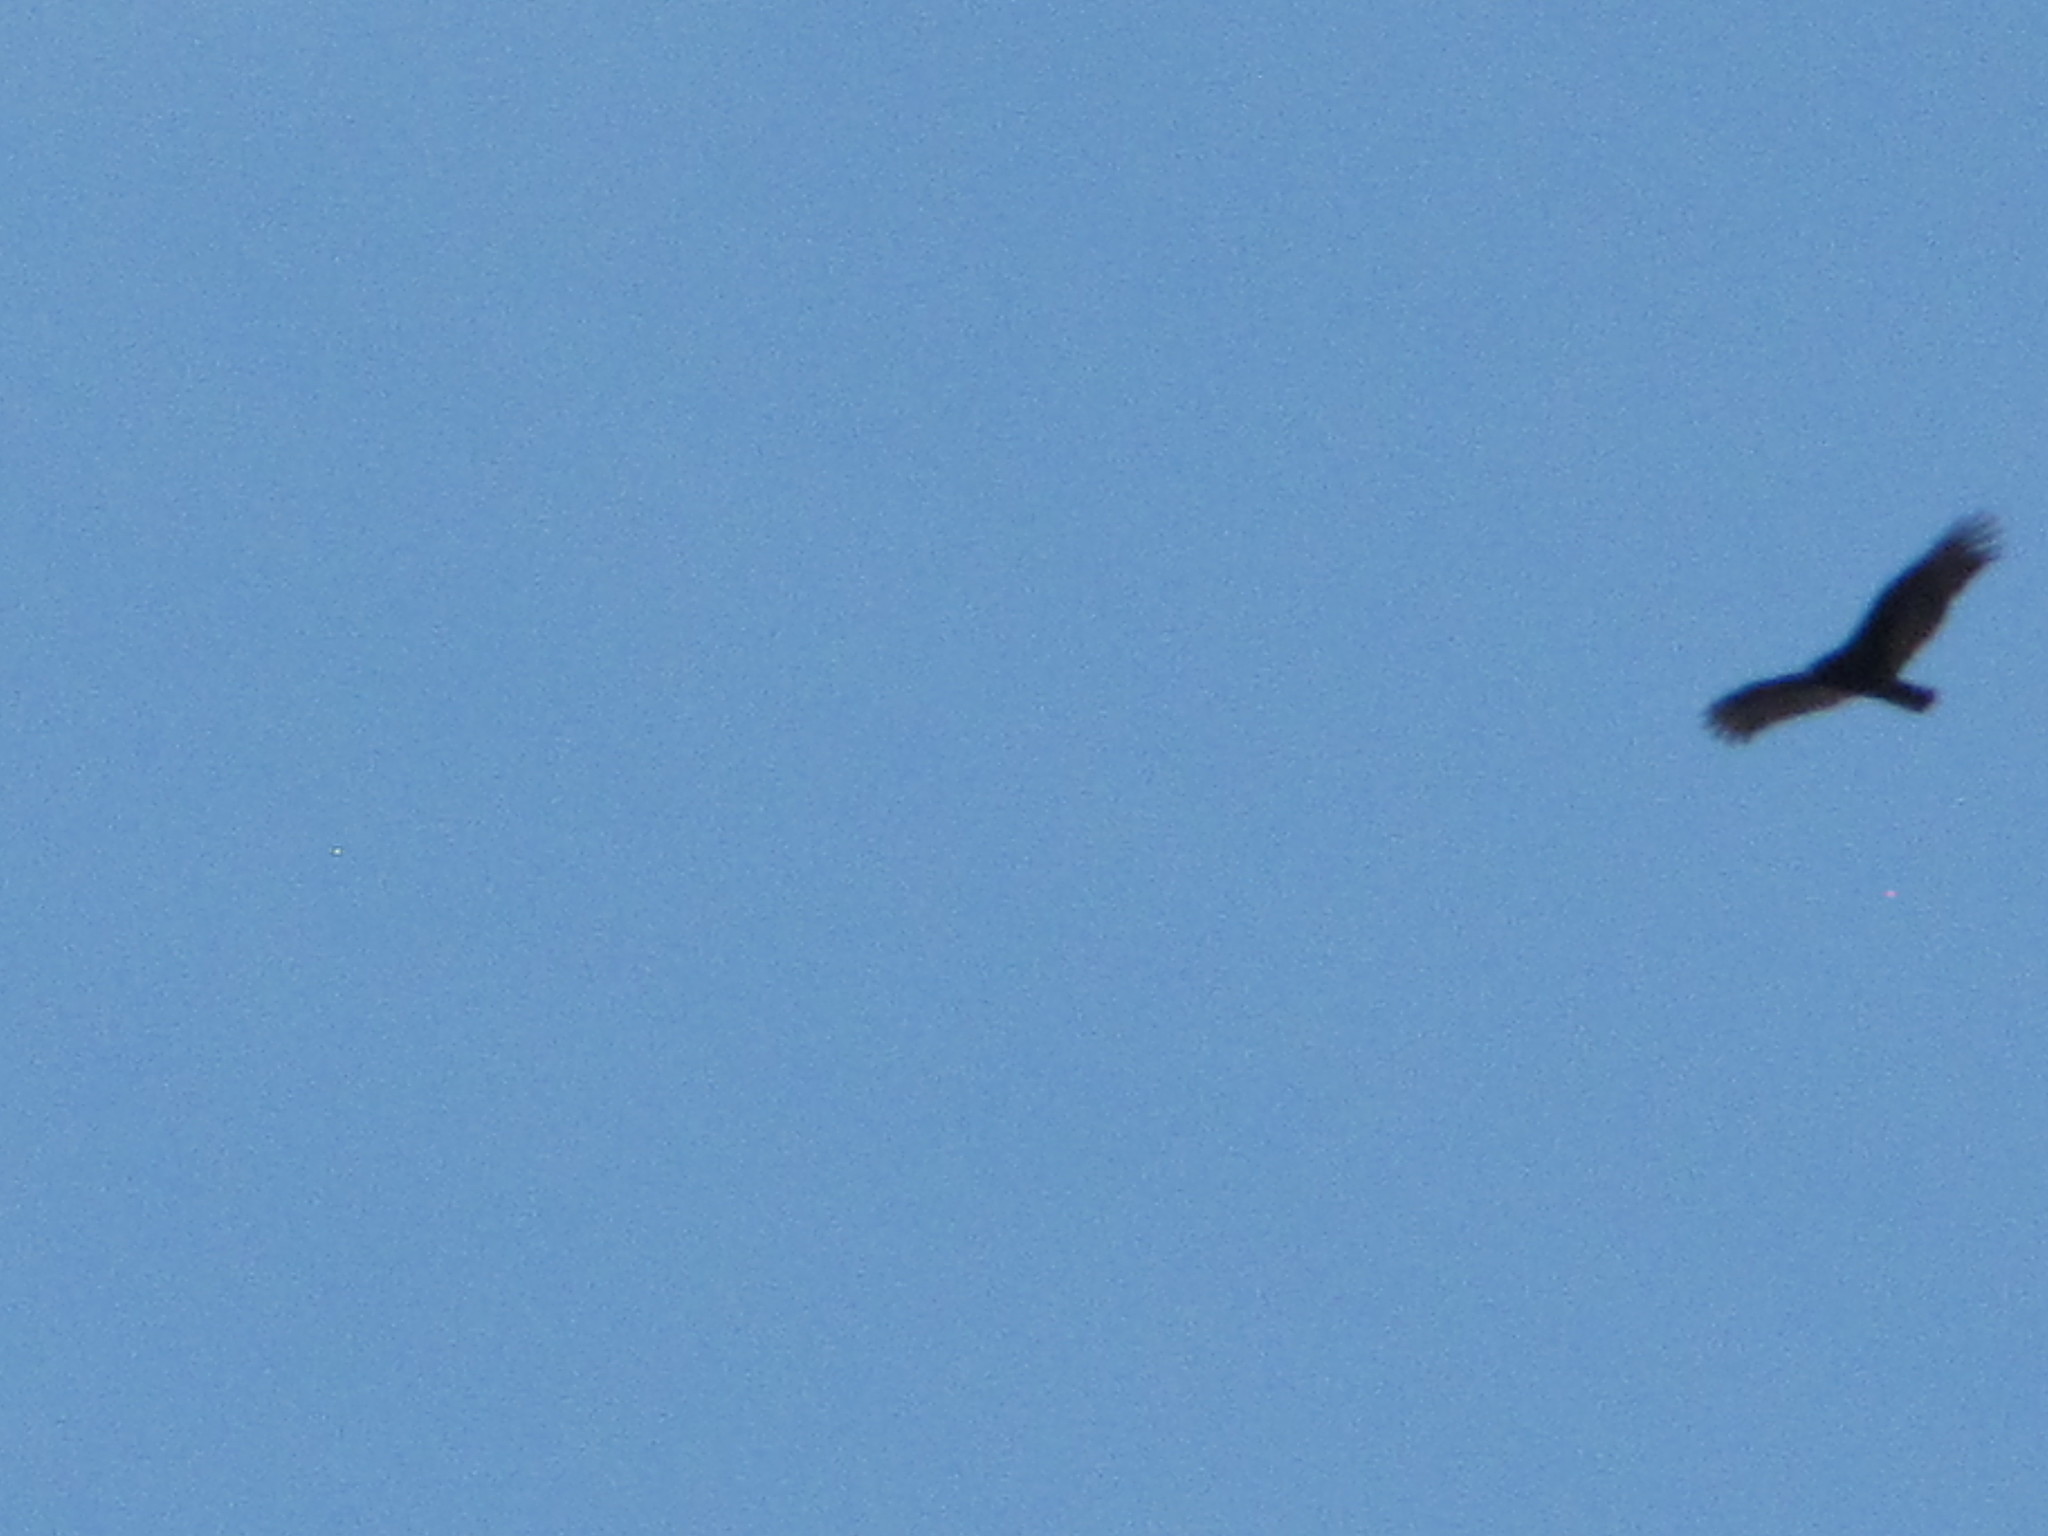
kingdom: Animalia
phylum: Chordata
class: Aves
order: Accipitriformes
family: Cathartidae
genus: Cathartes
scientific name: Cathartes aura
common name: Turkey vulture
